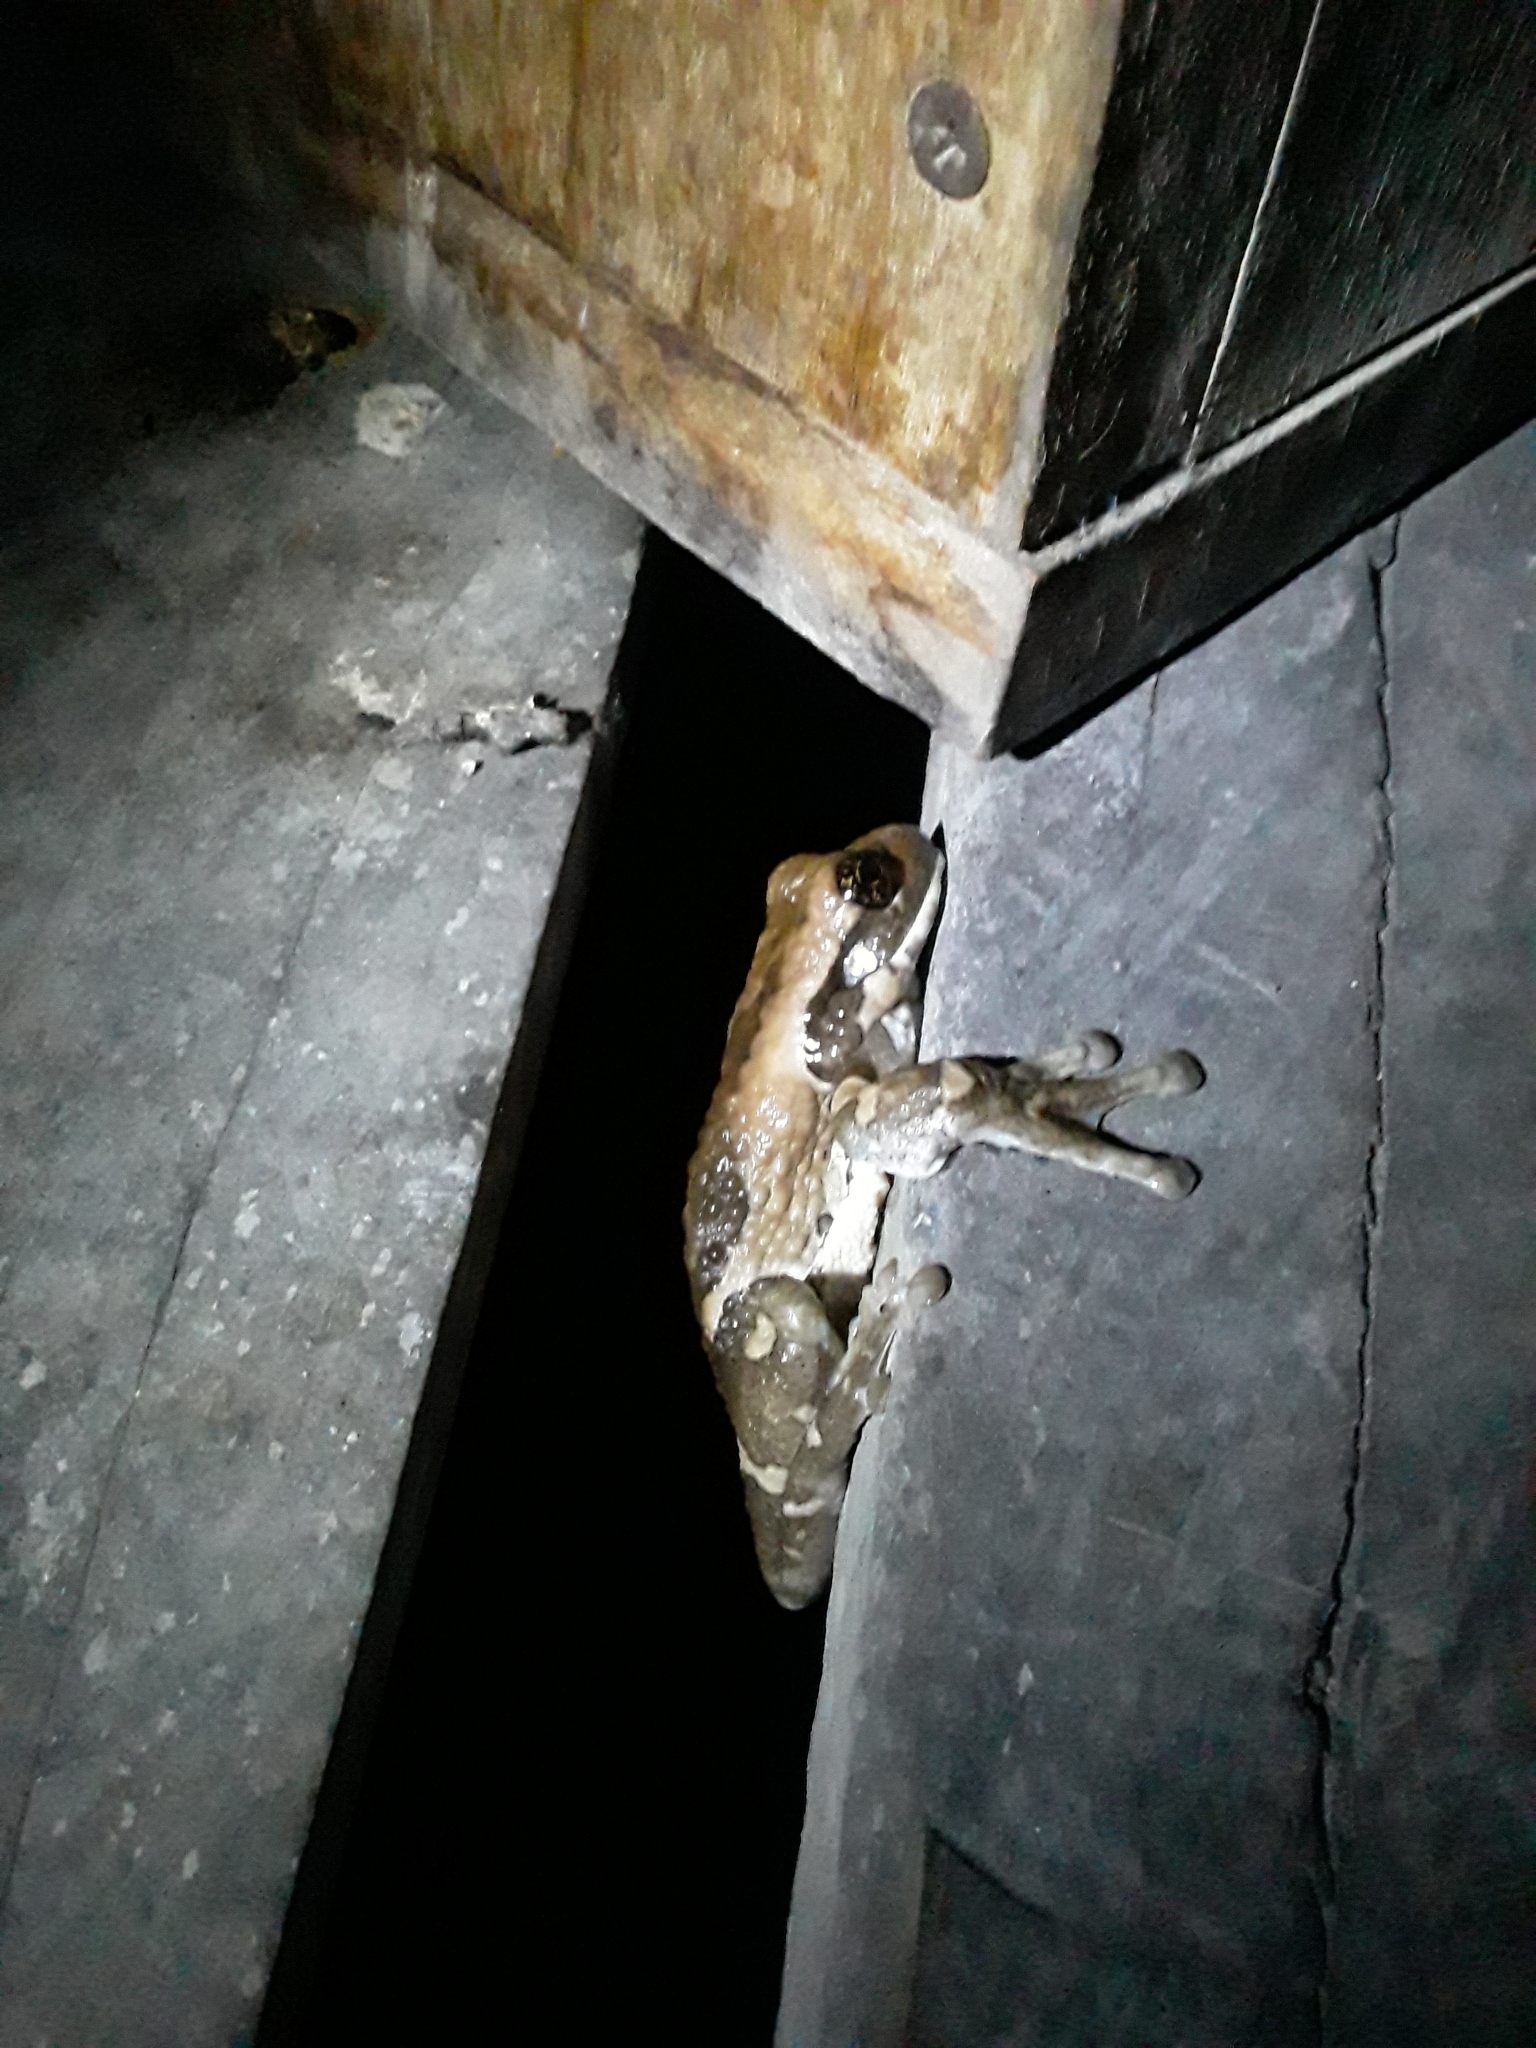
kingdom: Animalia
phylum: Chordata
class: Amphibia
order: Anura
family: Hylidae
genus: Trachycephalus
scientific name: Trachycephalus vermiculatus
